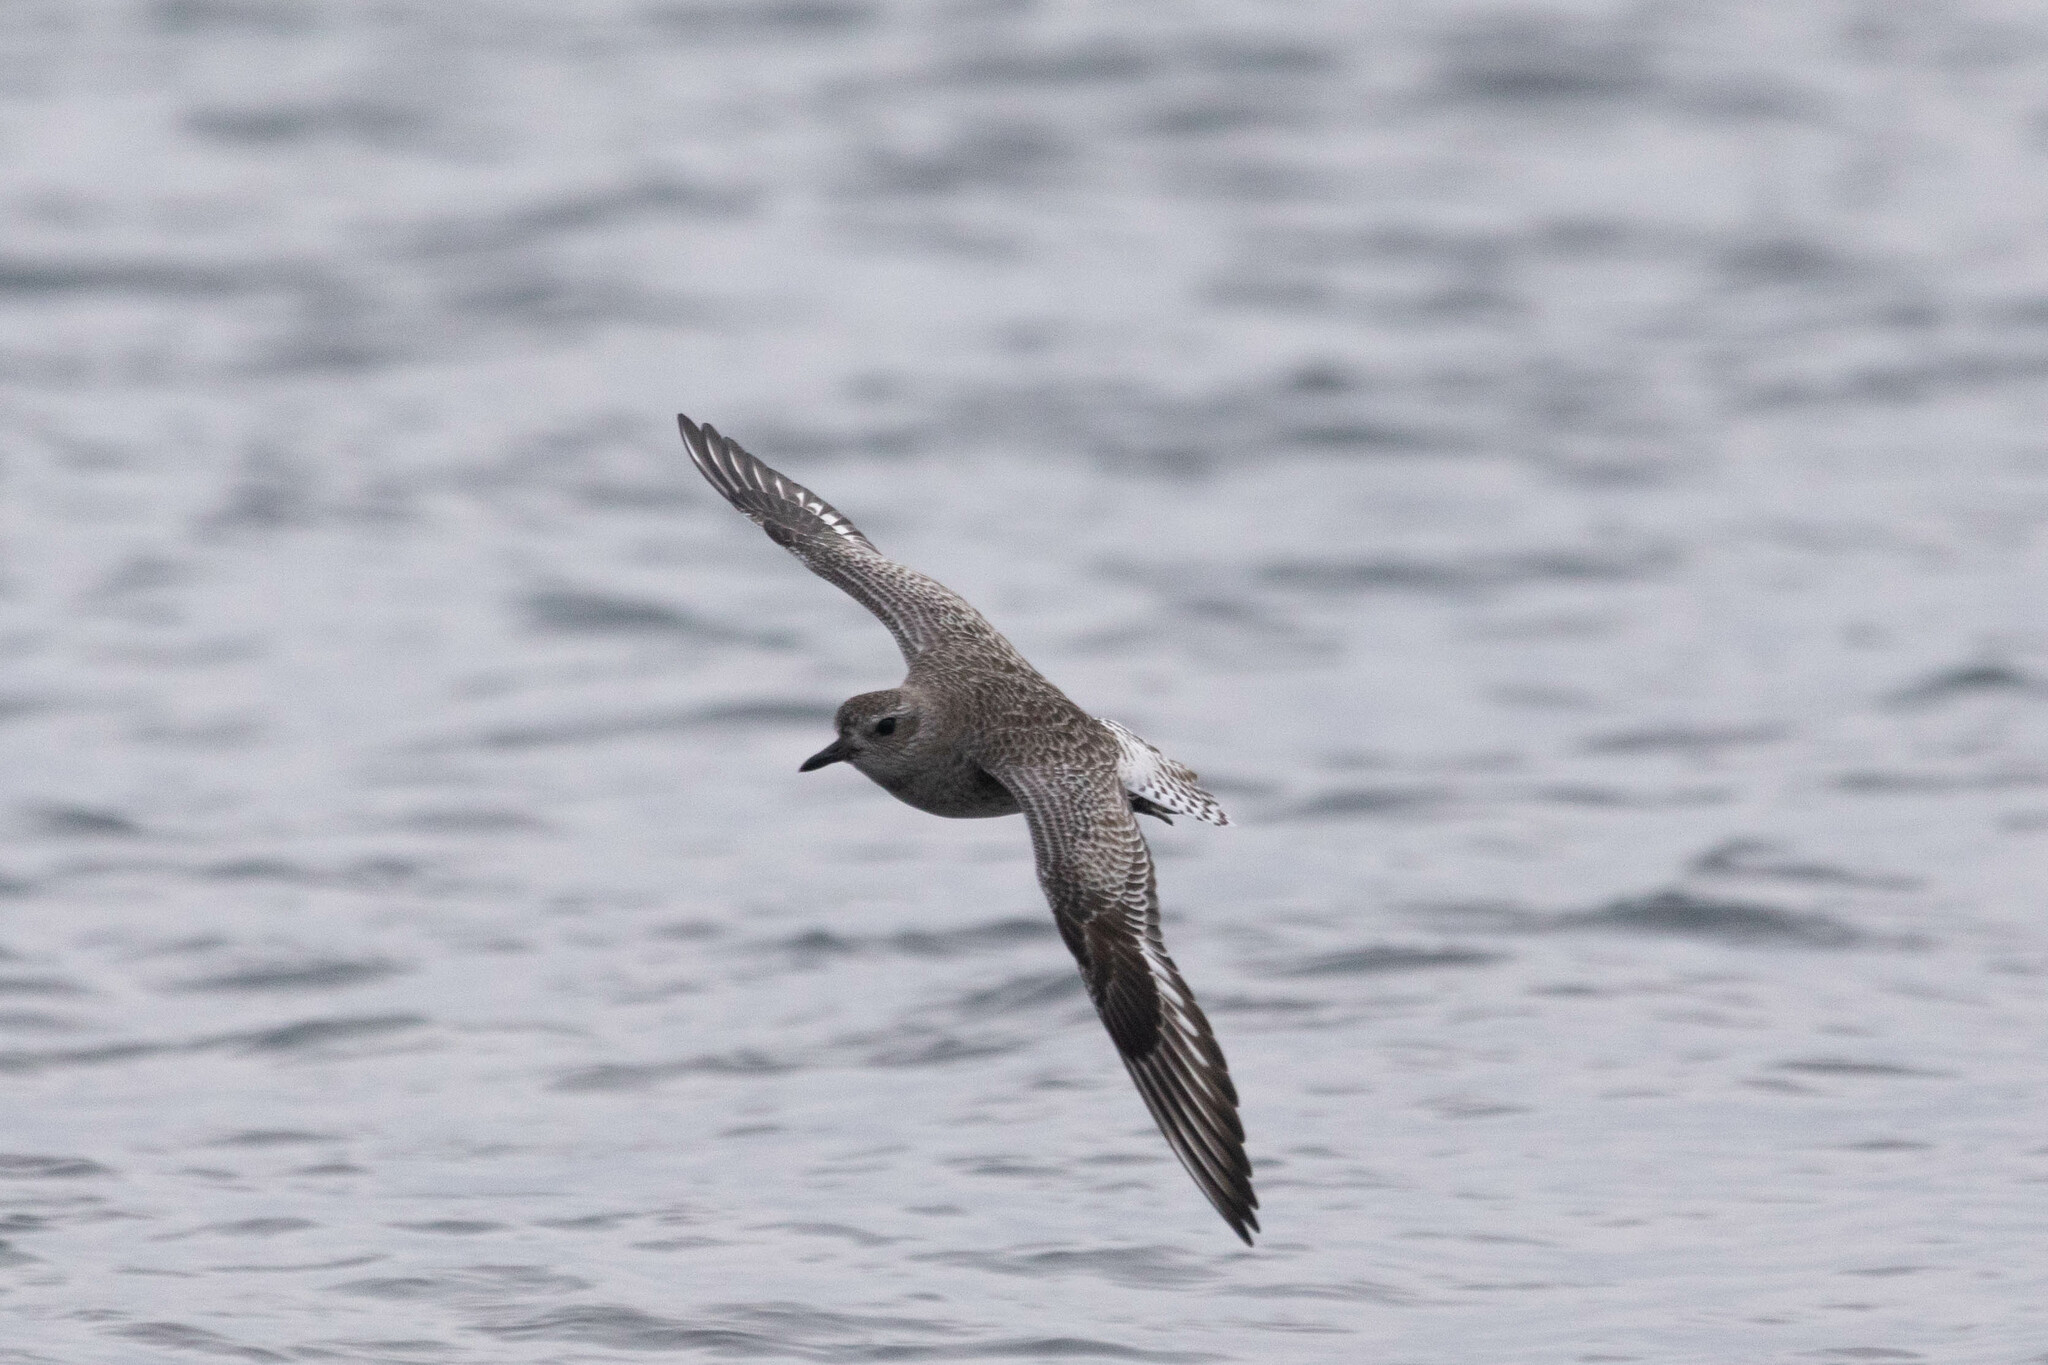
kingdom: Animalia
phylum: Chordata
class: Aves
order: Charadriiformes
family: Charadriidae
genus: Pluvialis
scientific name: Pluvialis squatarola
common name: Grey plover
